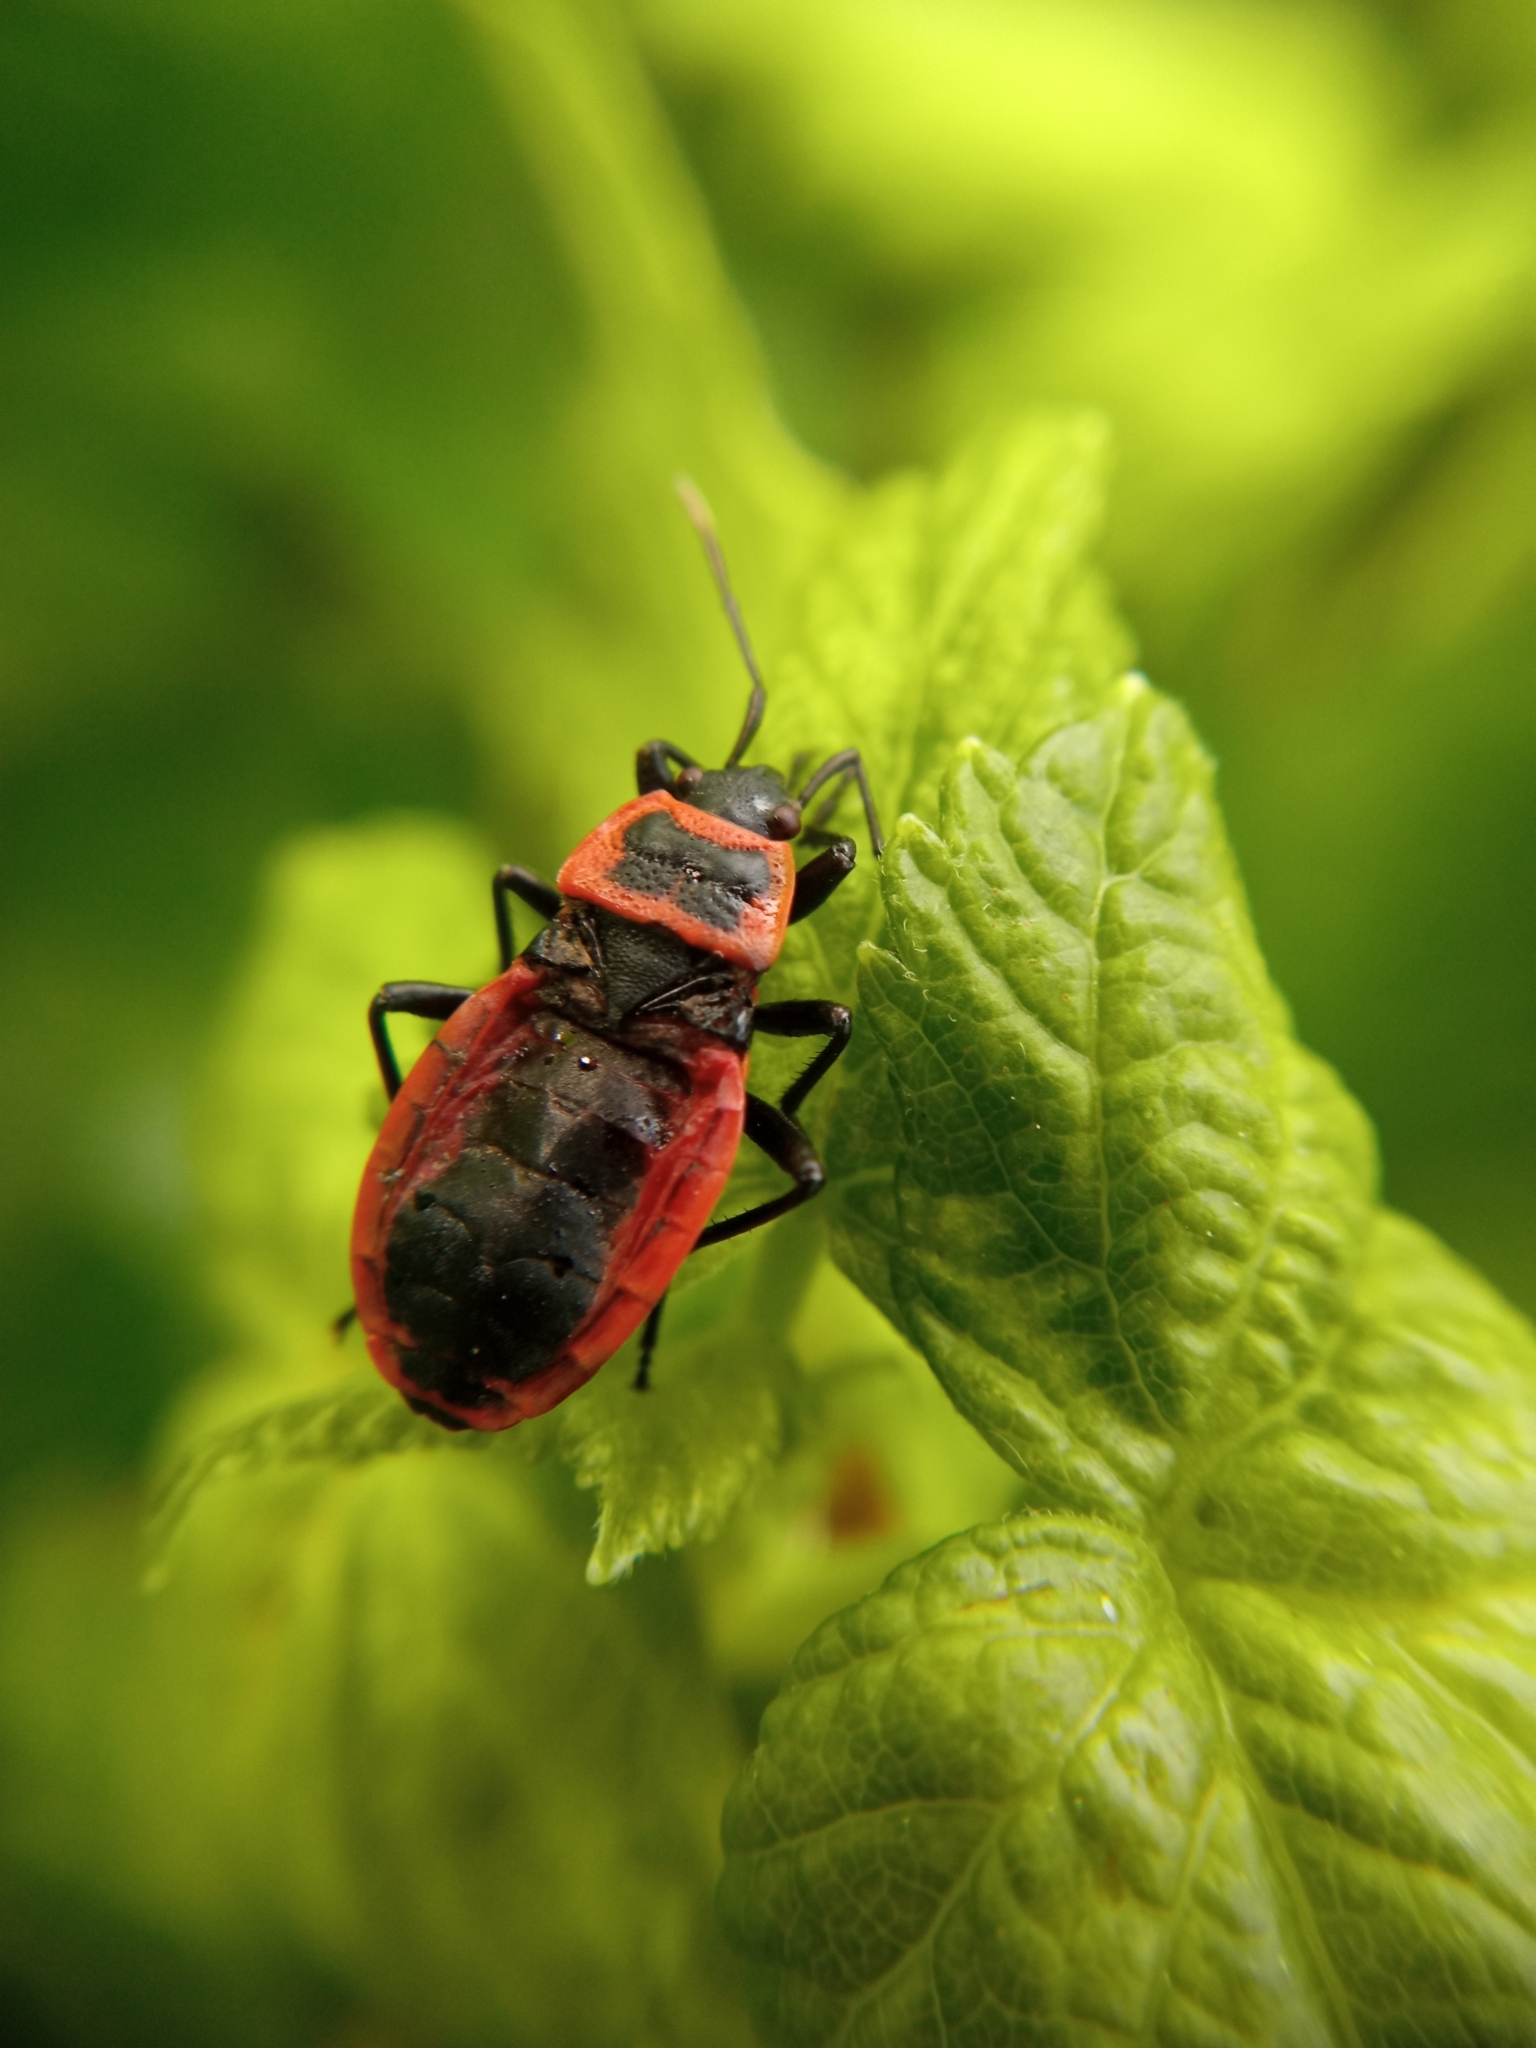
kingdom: Animalia
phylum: Arthropoda
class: Insecta
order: Hemiptera
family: Pyrrhocoridae
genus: Pyrrhocoris
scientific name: Pyrrhocoris apterus
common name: Firebug
